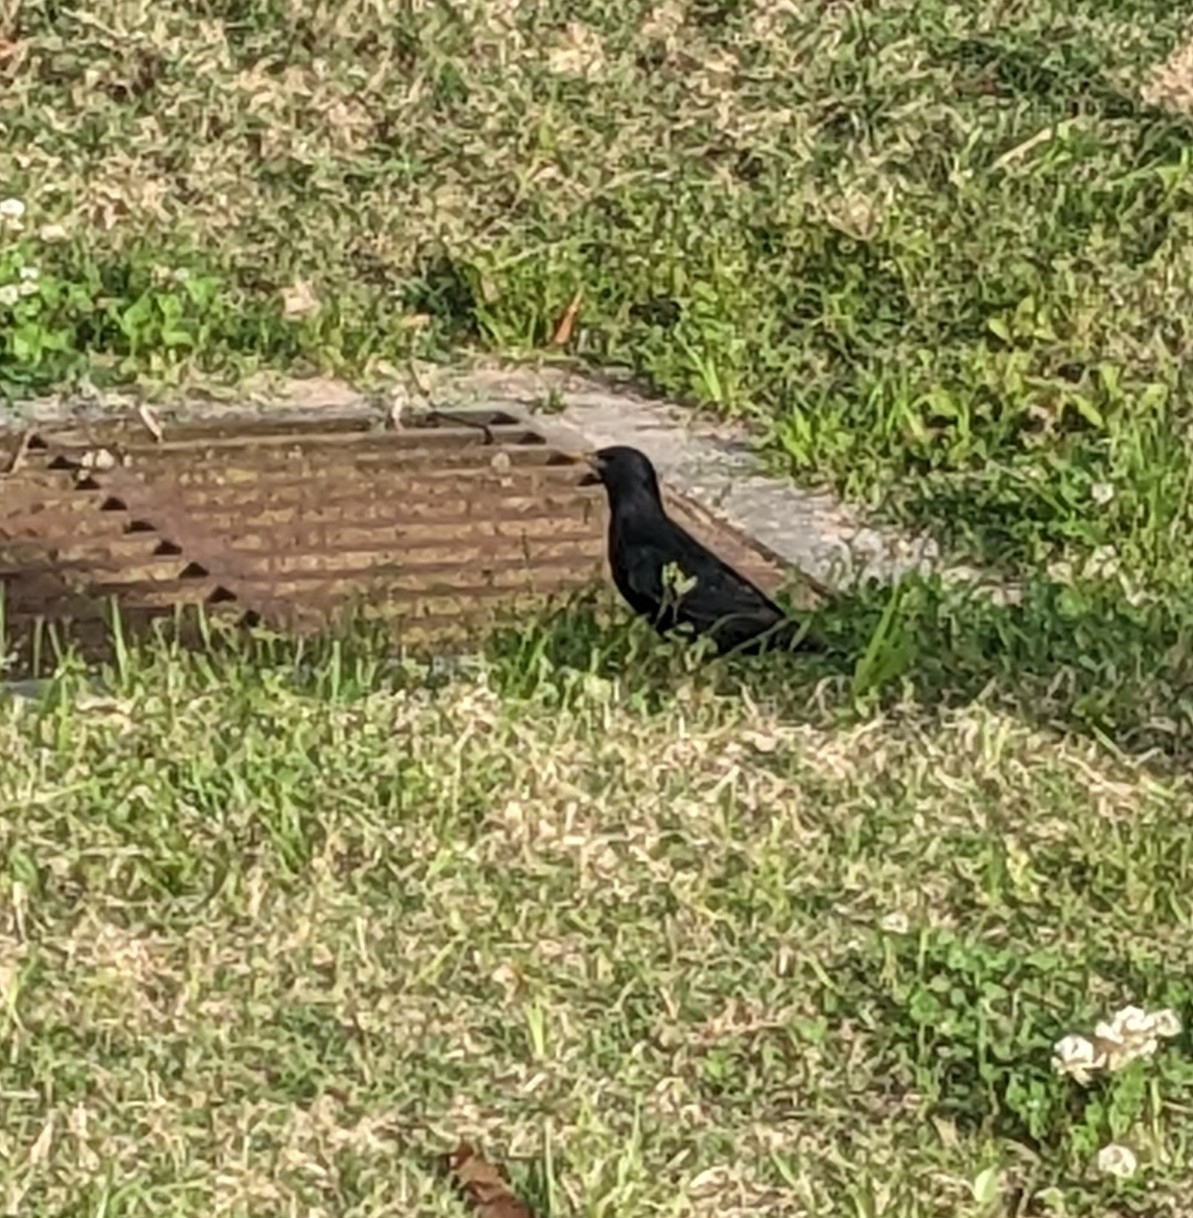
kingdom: Animalia
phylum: Chordata
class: Aves
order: Passeriformes
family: Sturnidae
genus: Sturnus
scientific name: Sturnus vulgaris
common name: Common starling
